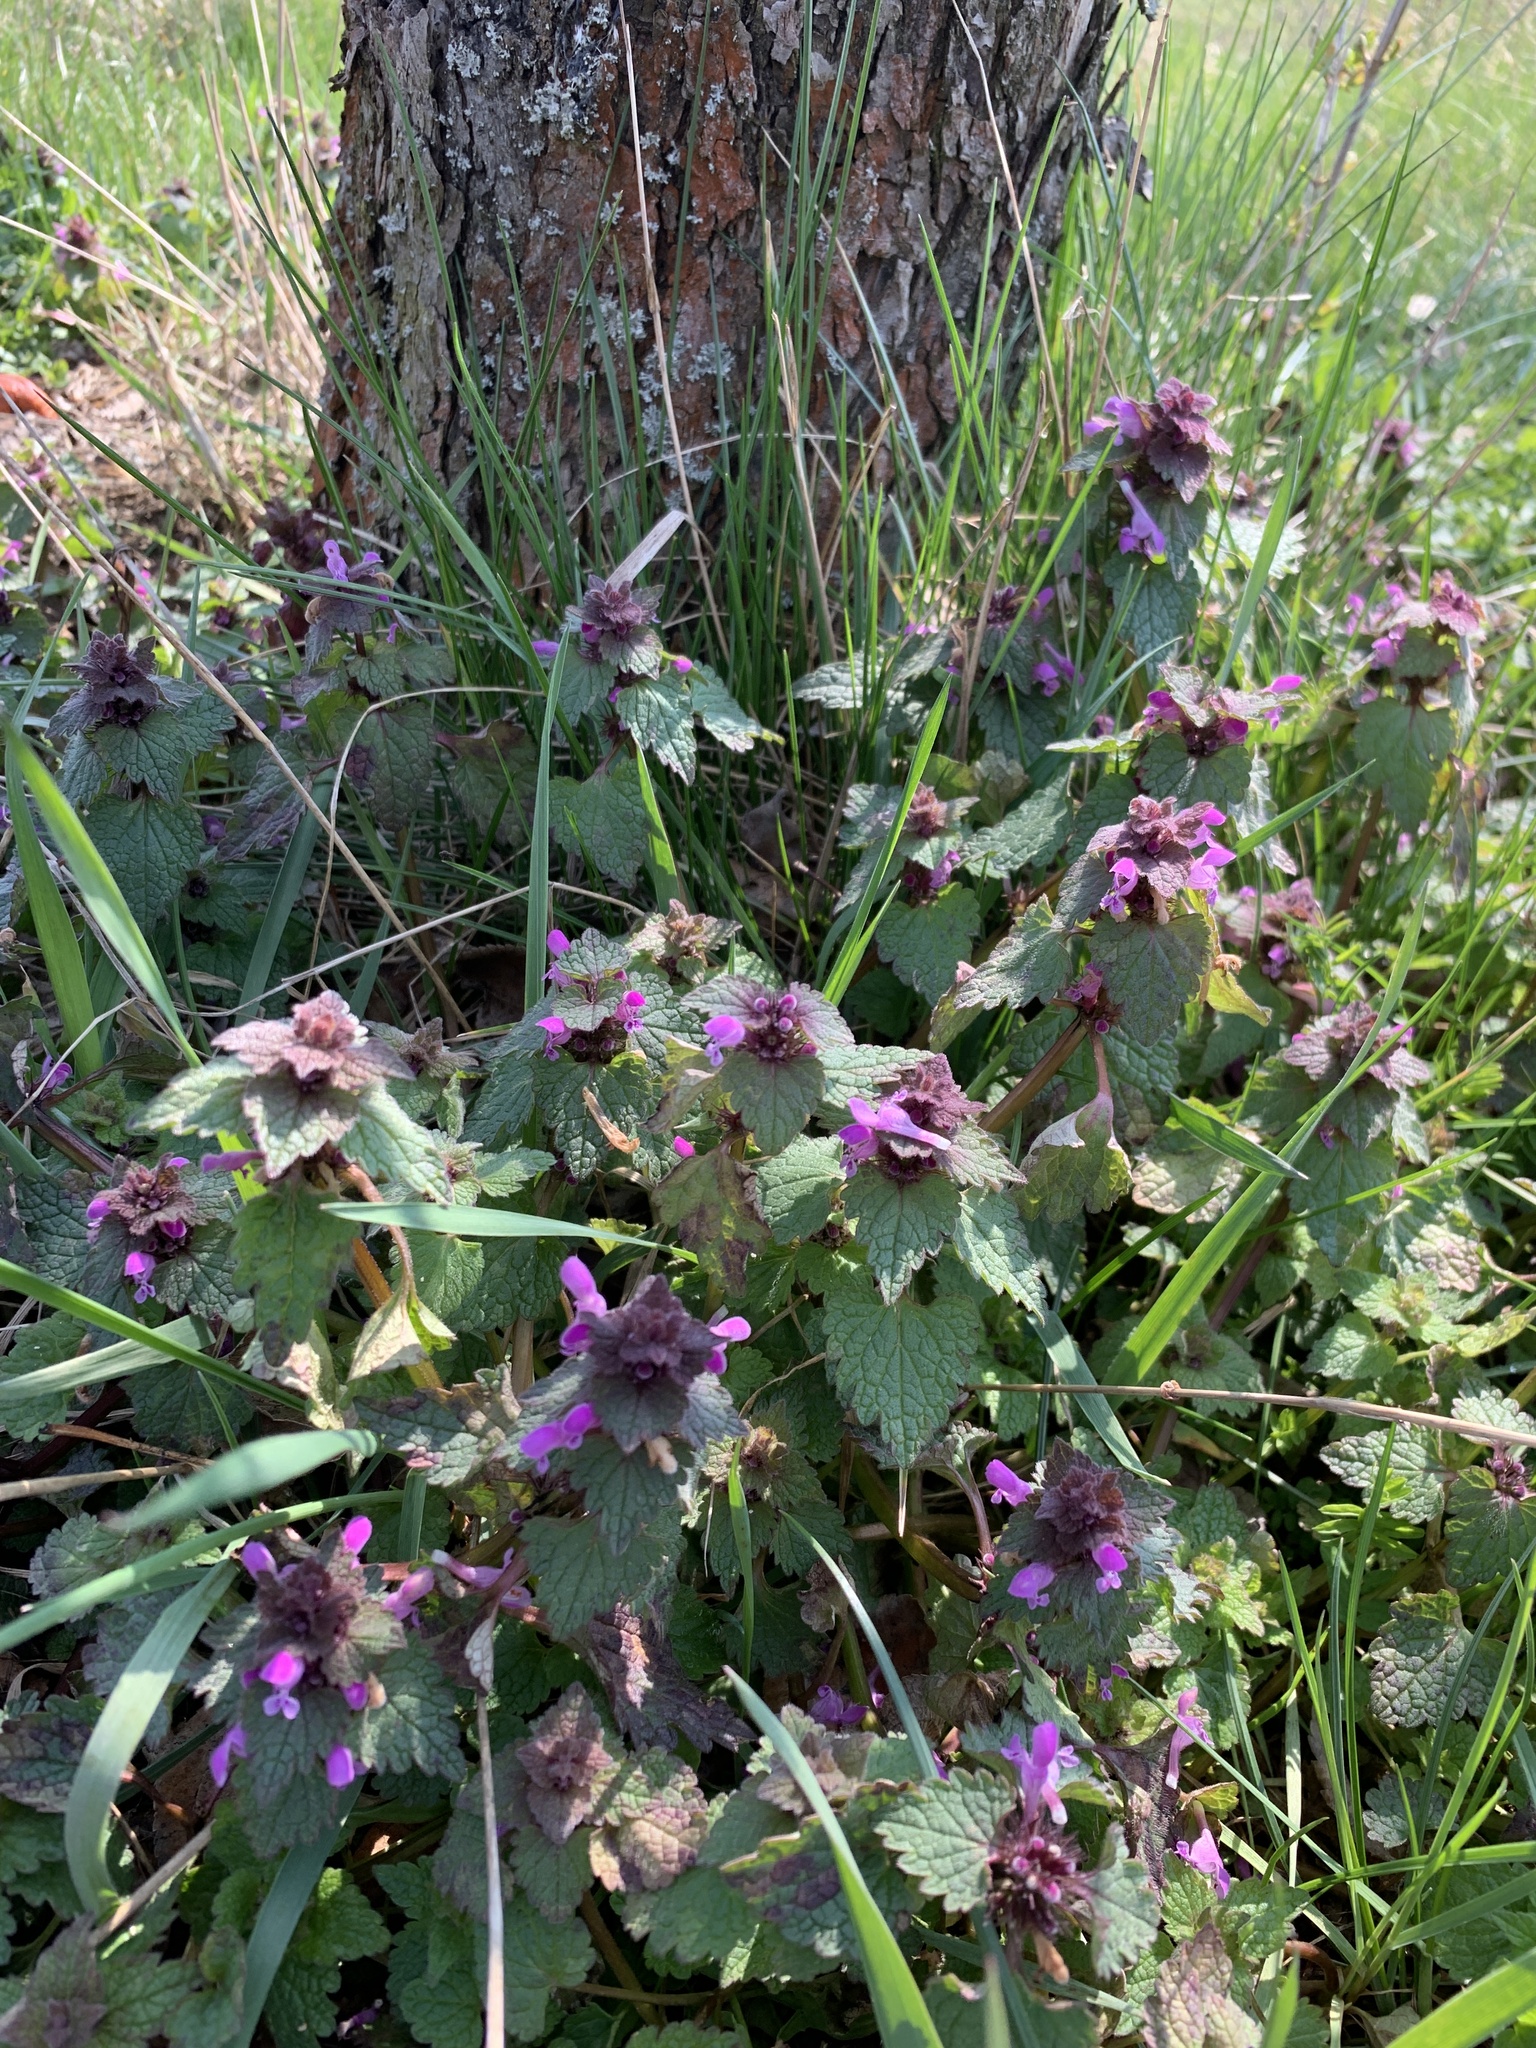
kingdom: Plantae
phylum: Tracheophyta
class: Magnoliopsida
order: Lamiales
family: Lamiaceae
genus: Lamium
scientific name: Lamium purpureum
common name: Red dead-nettle
